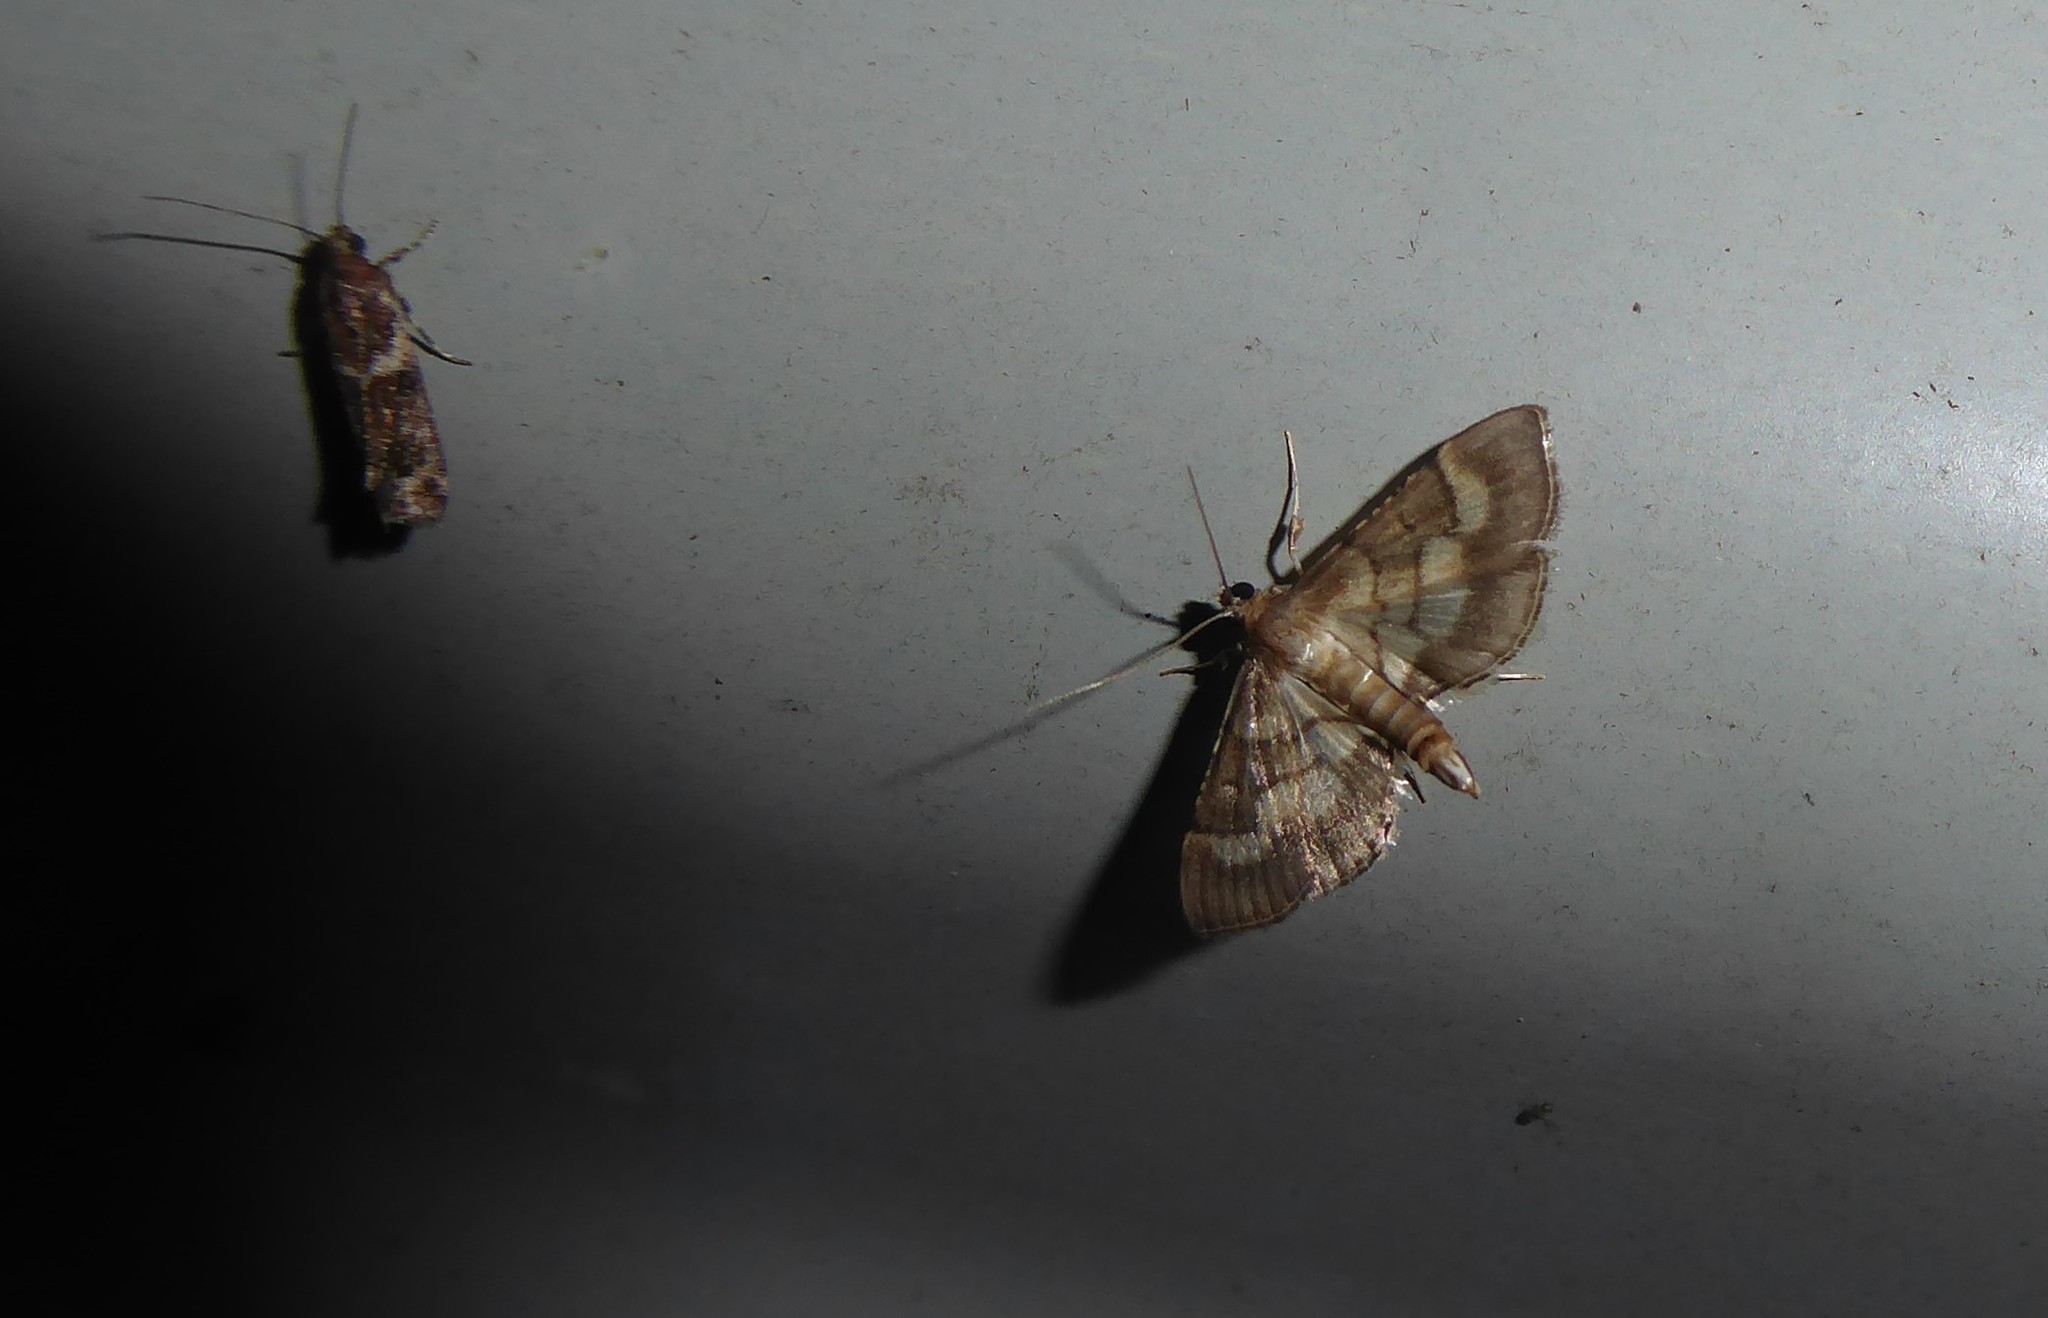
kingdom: Animalia
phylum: Arthropoda
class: Insecta
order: Lepidoptera
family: Crambidae
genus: Cnaphalocrocis
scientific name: Cnaphalocrocis poeyalis
